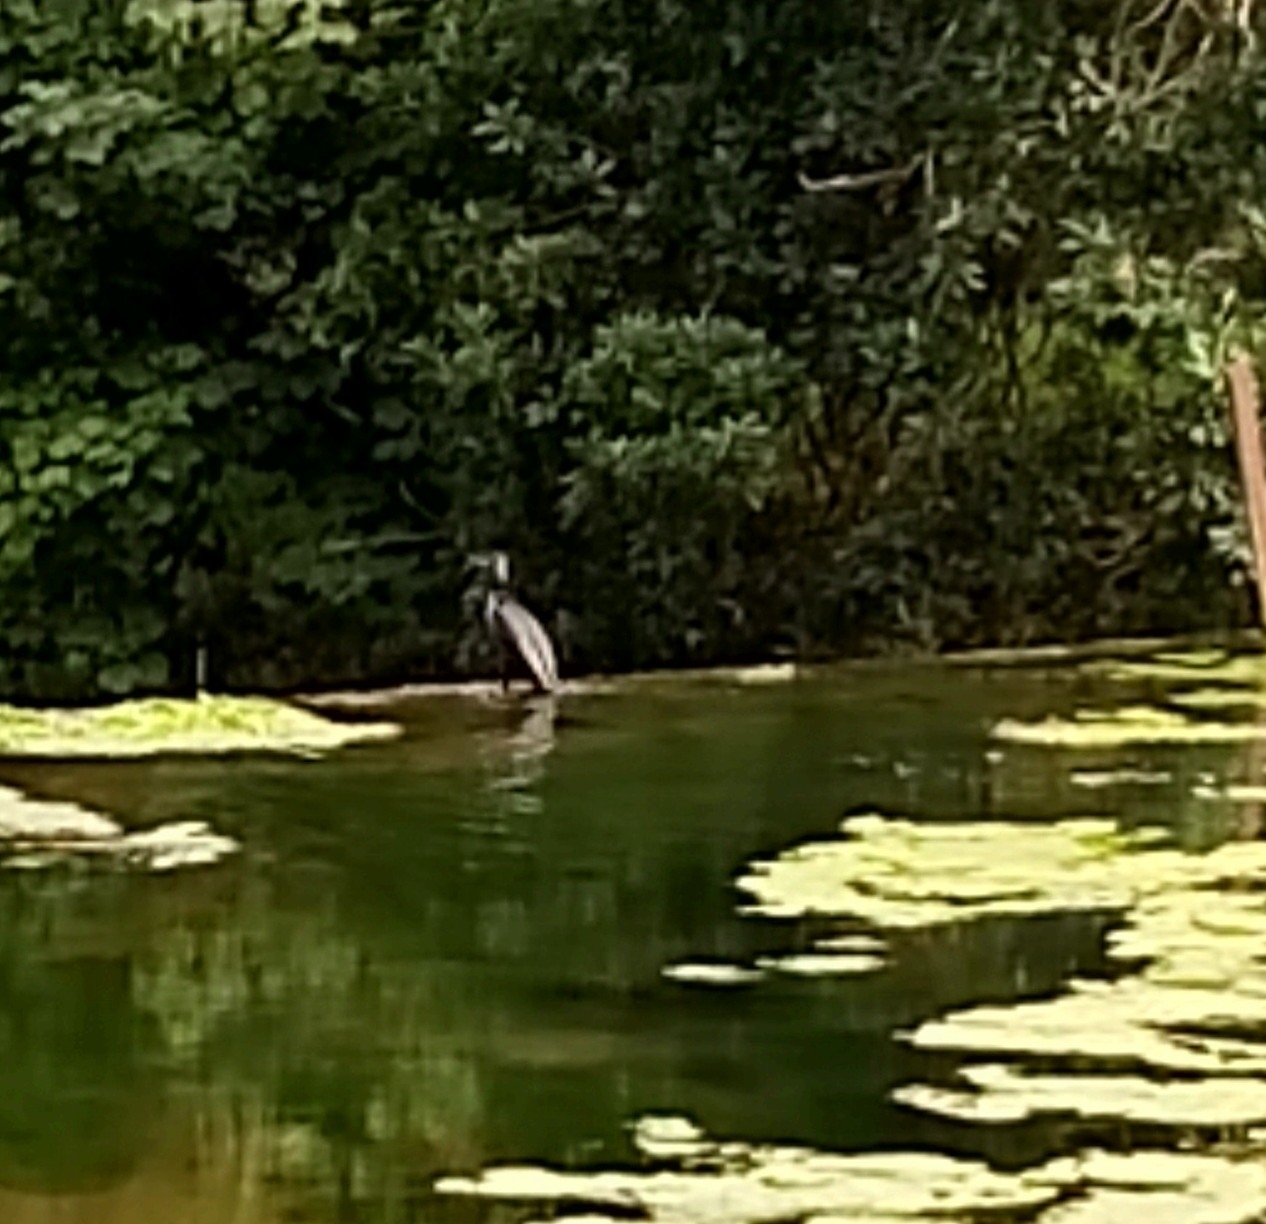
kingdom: Animalia
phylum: Chordata
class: Aves
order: Suliformes
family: Phalacrocoracidae
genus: Phalacrocorax
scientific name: Phalacrocorax carbo
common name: Great cormorant
